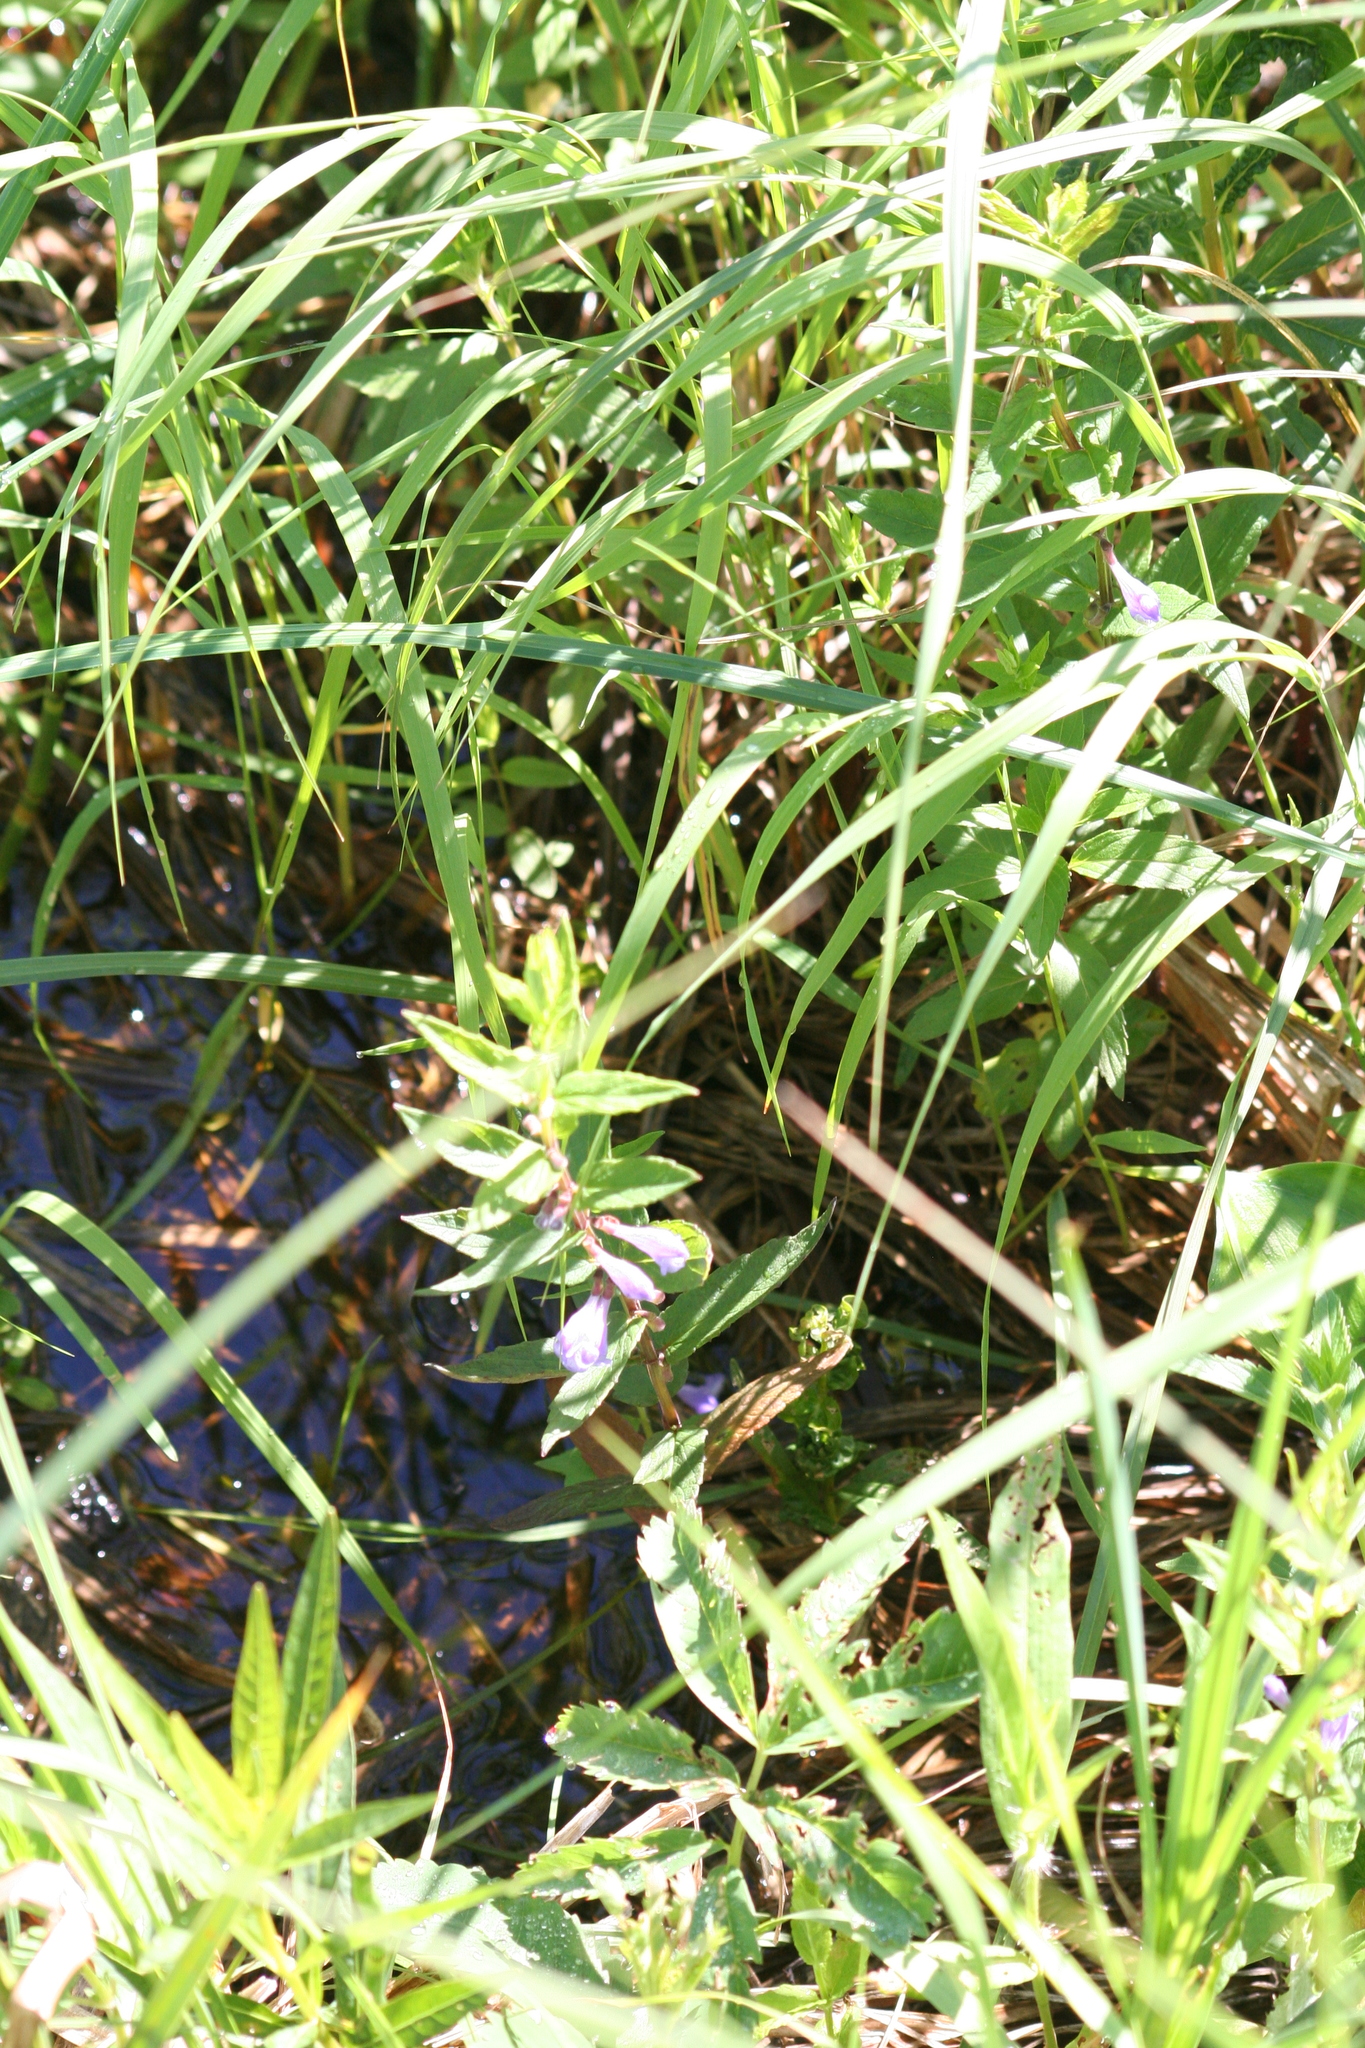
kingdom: Plantae
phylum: Tracheophyta
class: Magnoliopsida
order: Lamiales
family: Lamiaceae
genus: Scutellaria
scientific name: Scutellaria galericulata
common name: Skullcap
